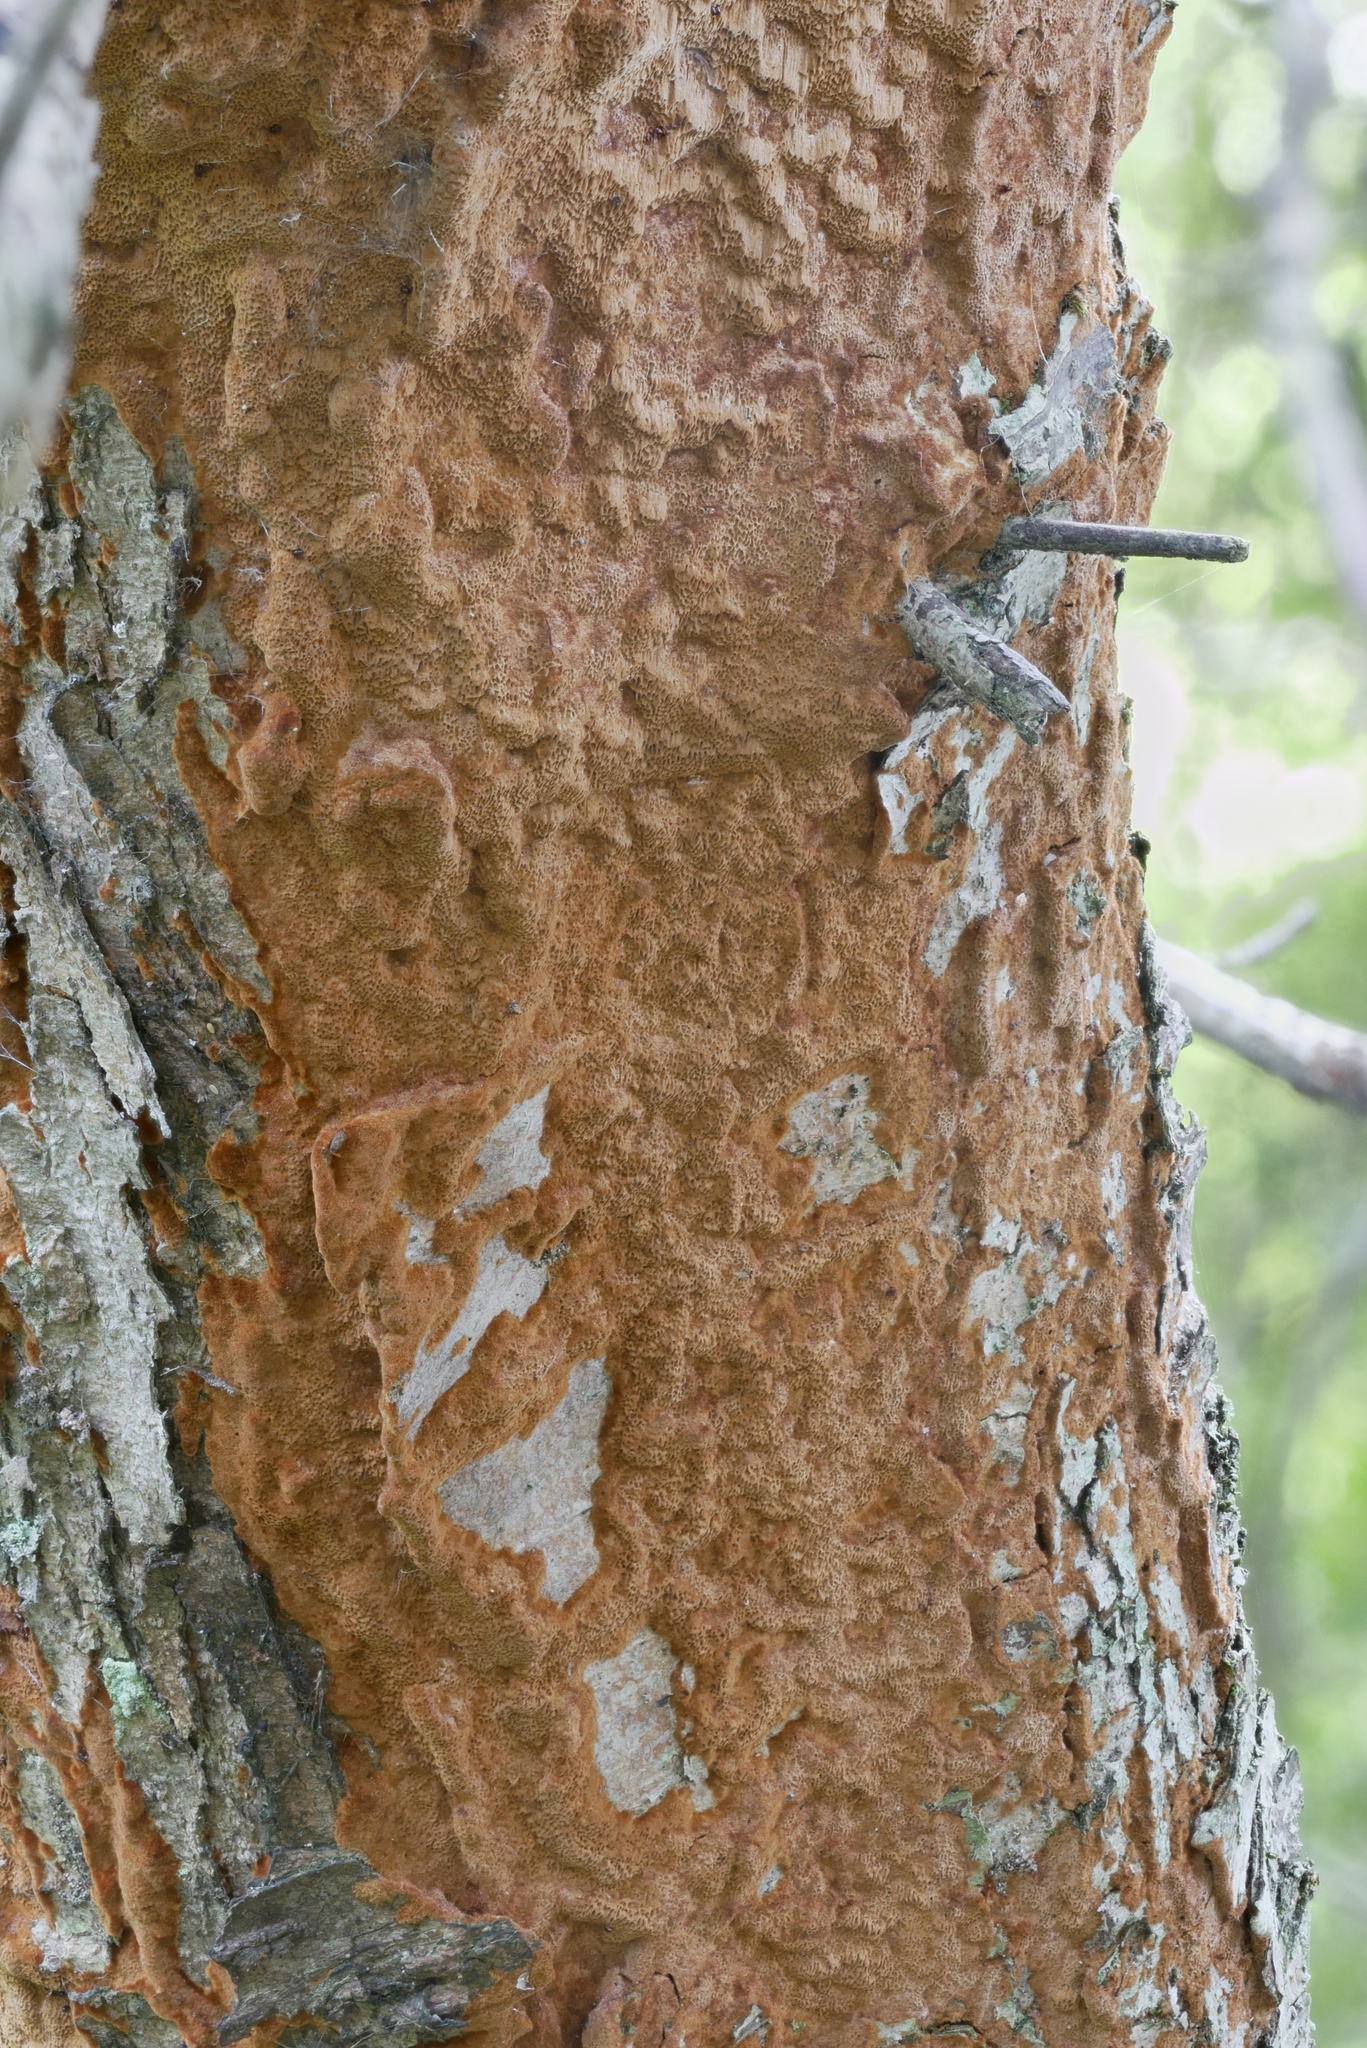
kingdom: Fungi
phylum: Basidiomycota
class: Agaricomycetes
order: Hymenochaetales
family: Hymenochaetaceae
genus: Fuscoporia
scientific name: Fuscoporia ferruginosa
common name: Rusty porecrust
